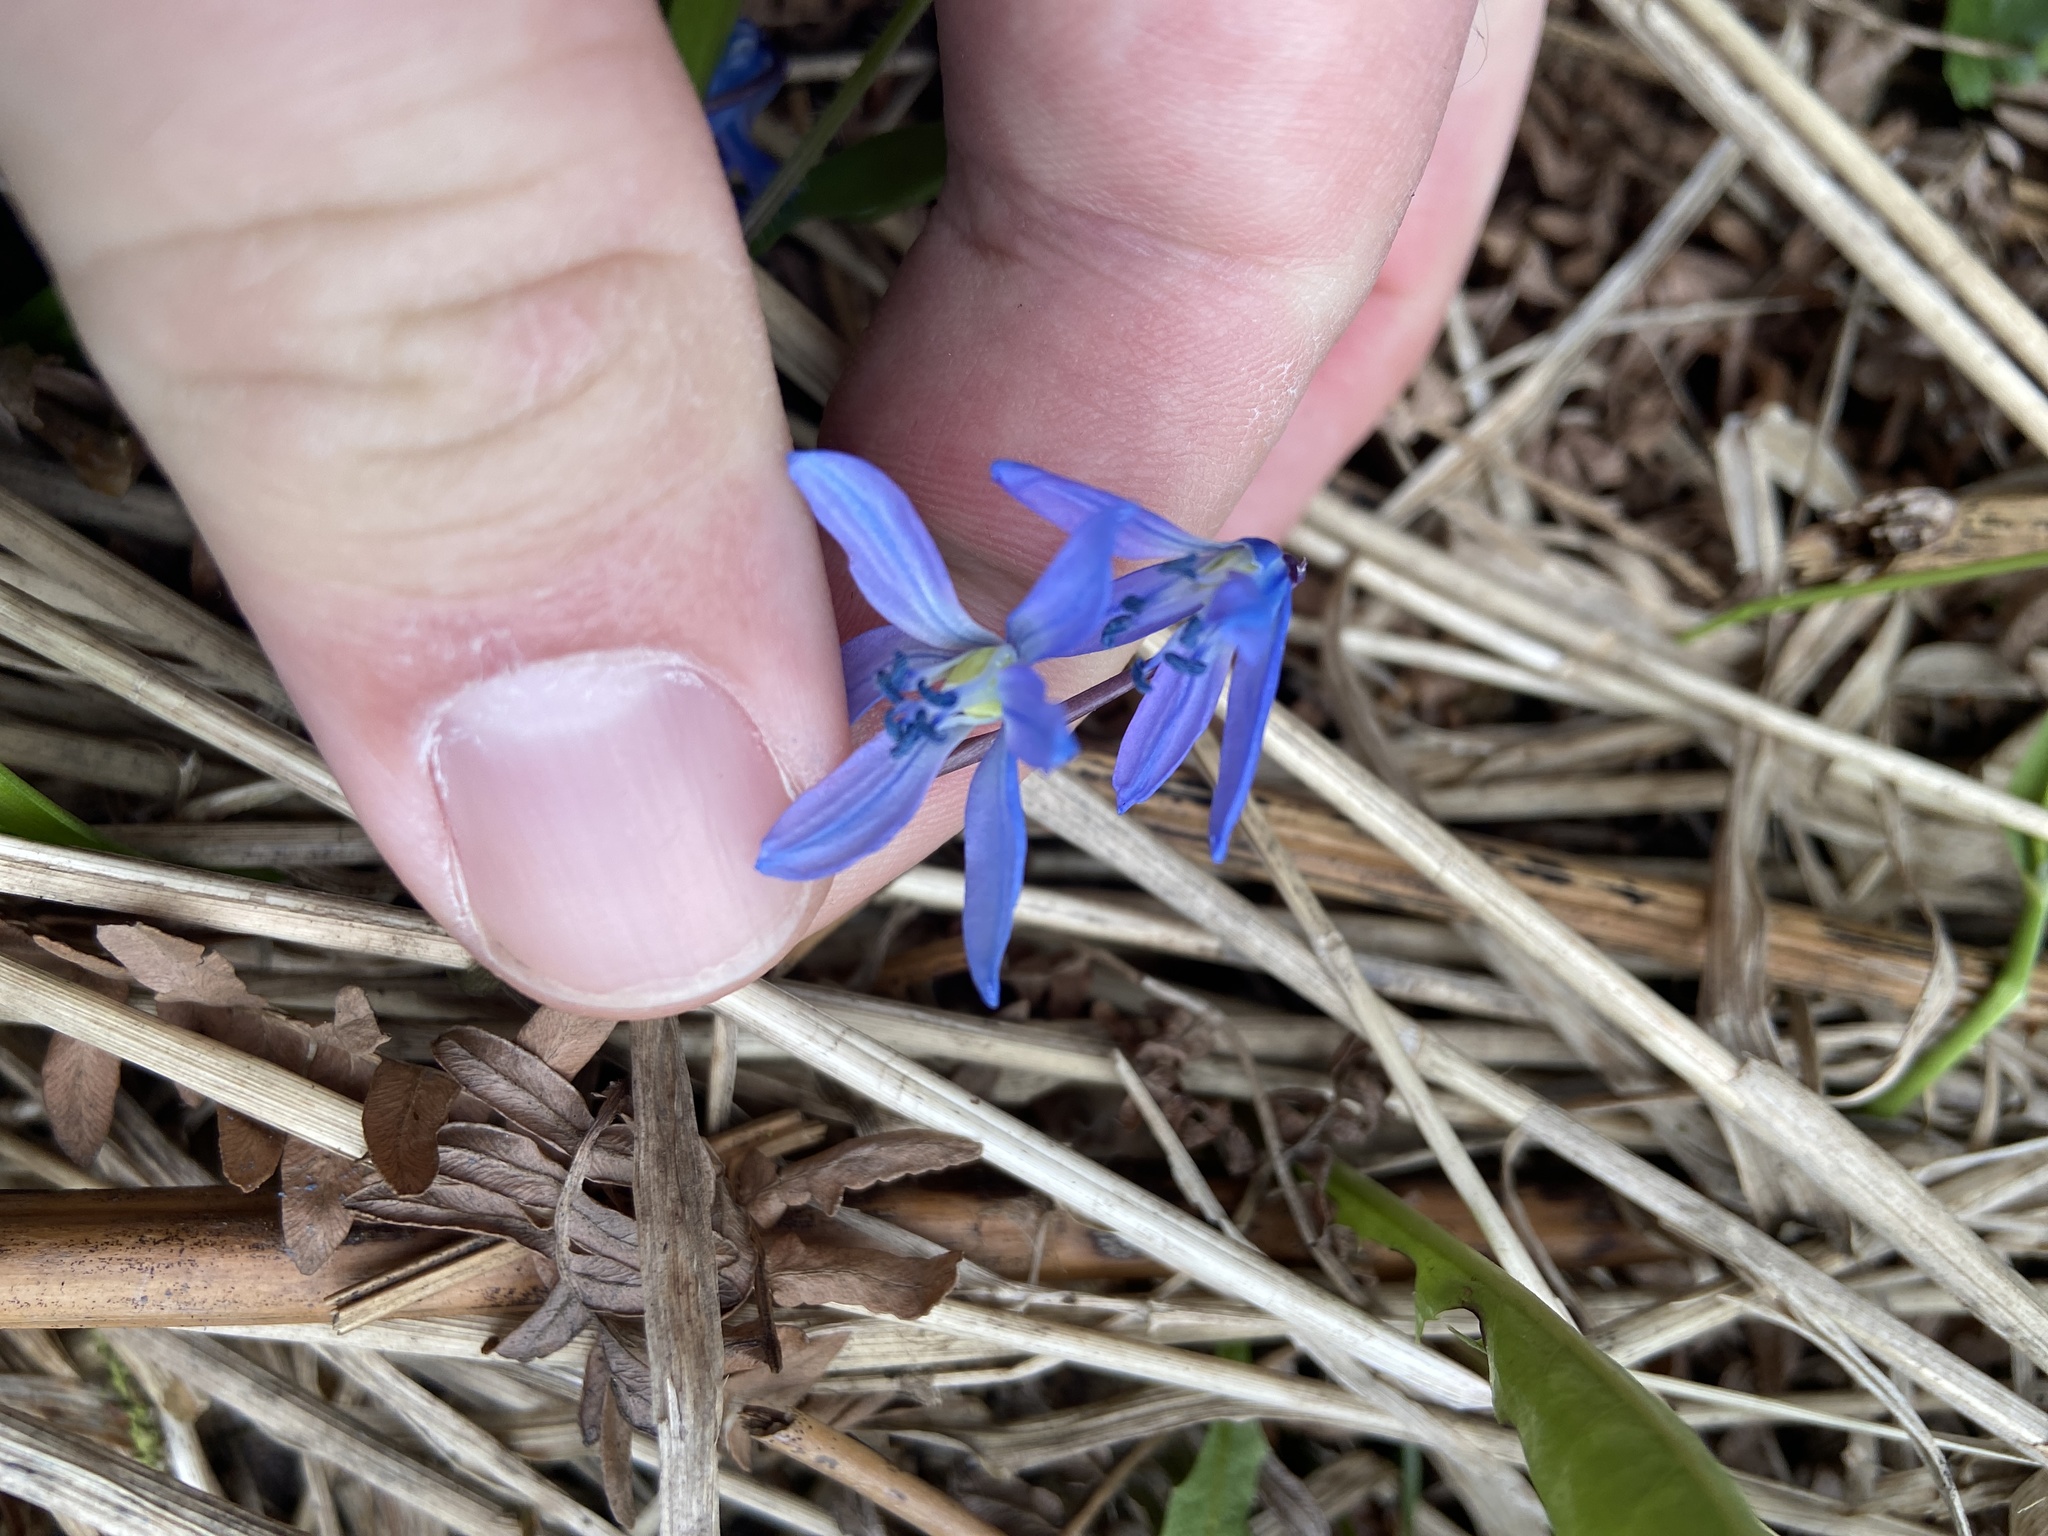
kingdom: Plantae
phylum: Tracheophyta
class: Liliopsida
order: Asparagales
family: Asparagaceae
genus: Scilla
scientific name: Scilla siberica
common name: Siberian squill
